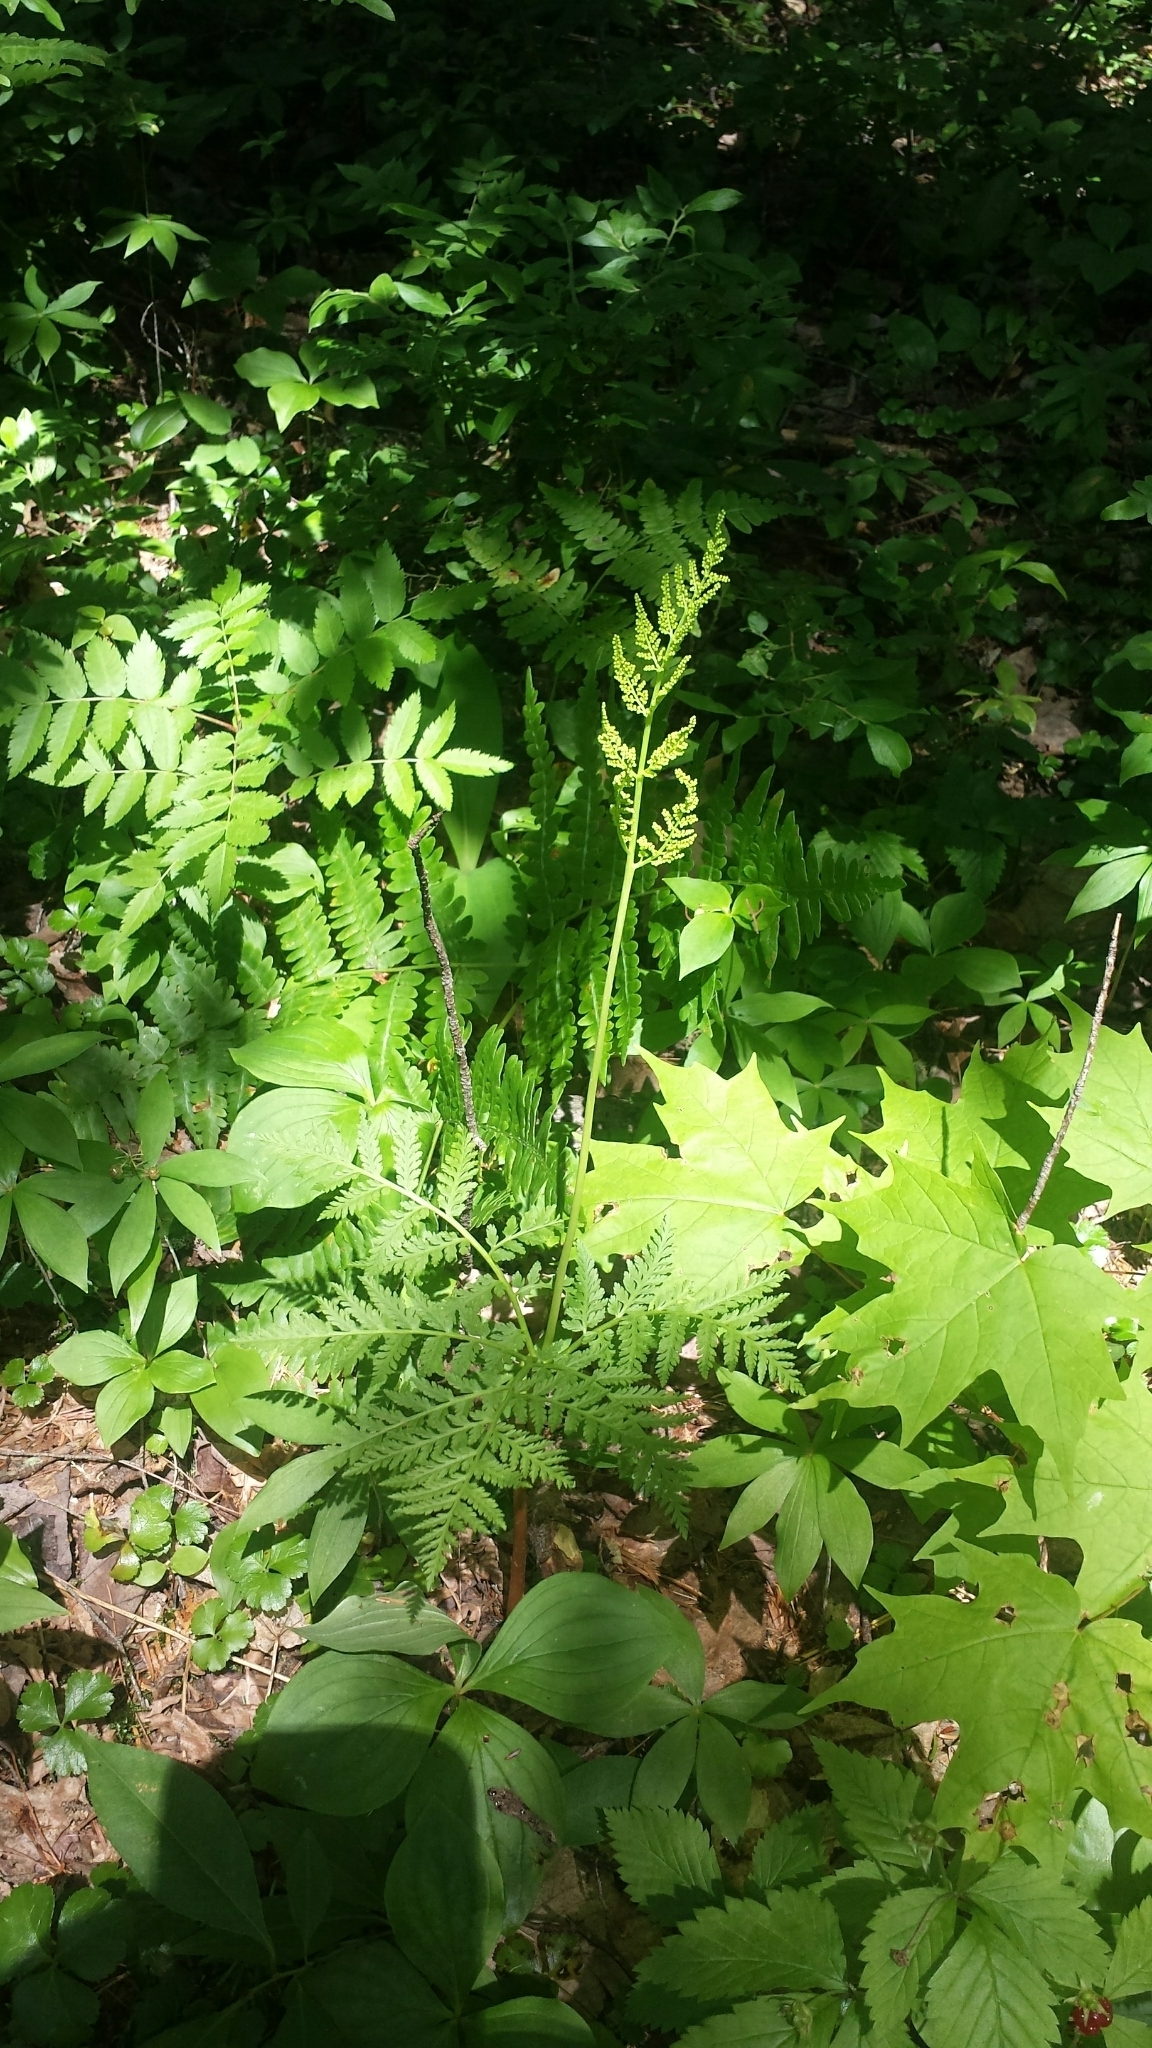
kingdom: Plantae
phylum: Tracheophyta
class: Polypodiopsida
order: Ophioglossales
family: Ophioglossaceae
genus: Botrypus
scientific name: Botrypus virginianus
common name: Common grapefern
